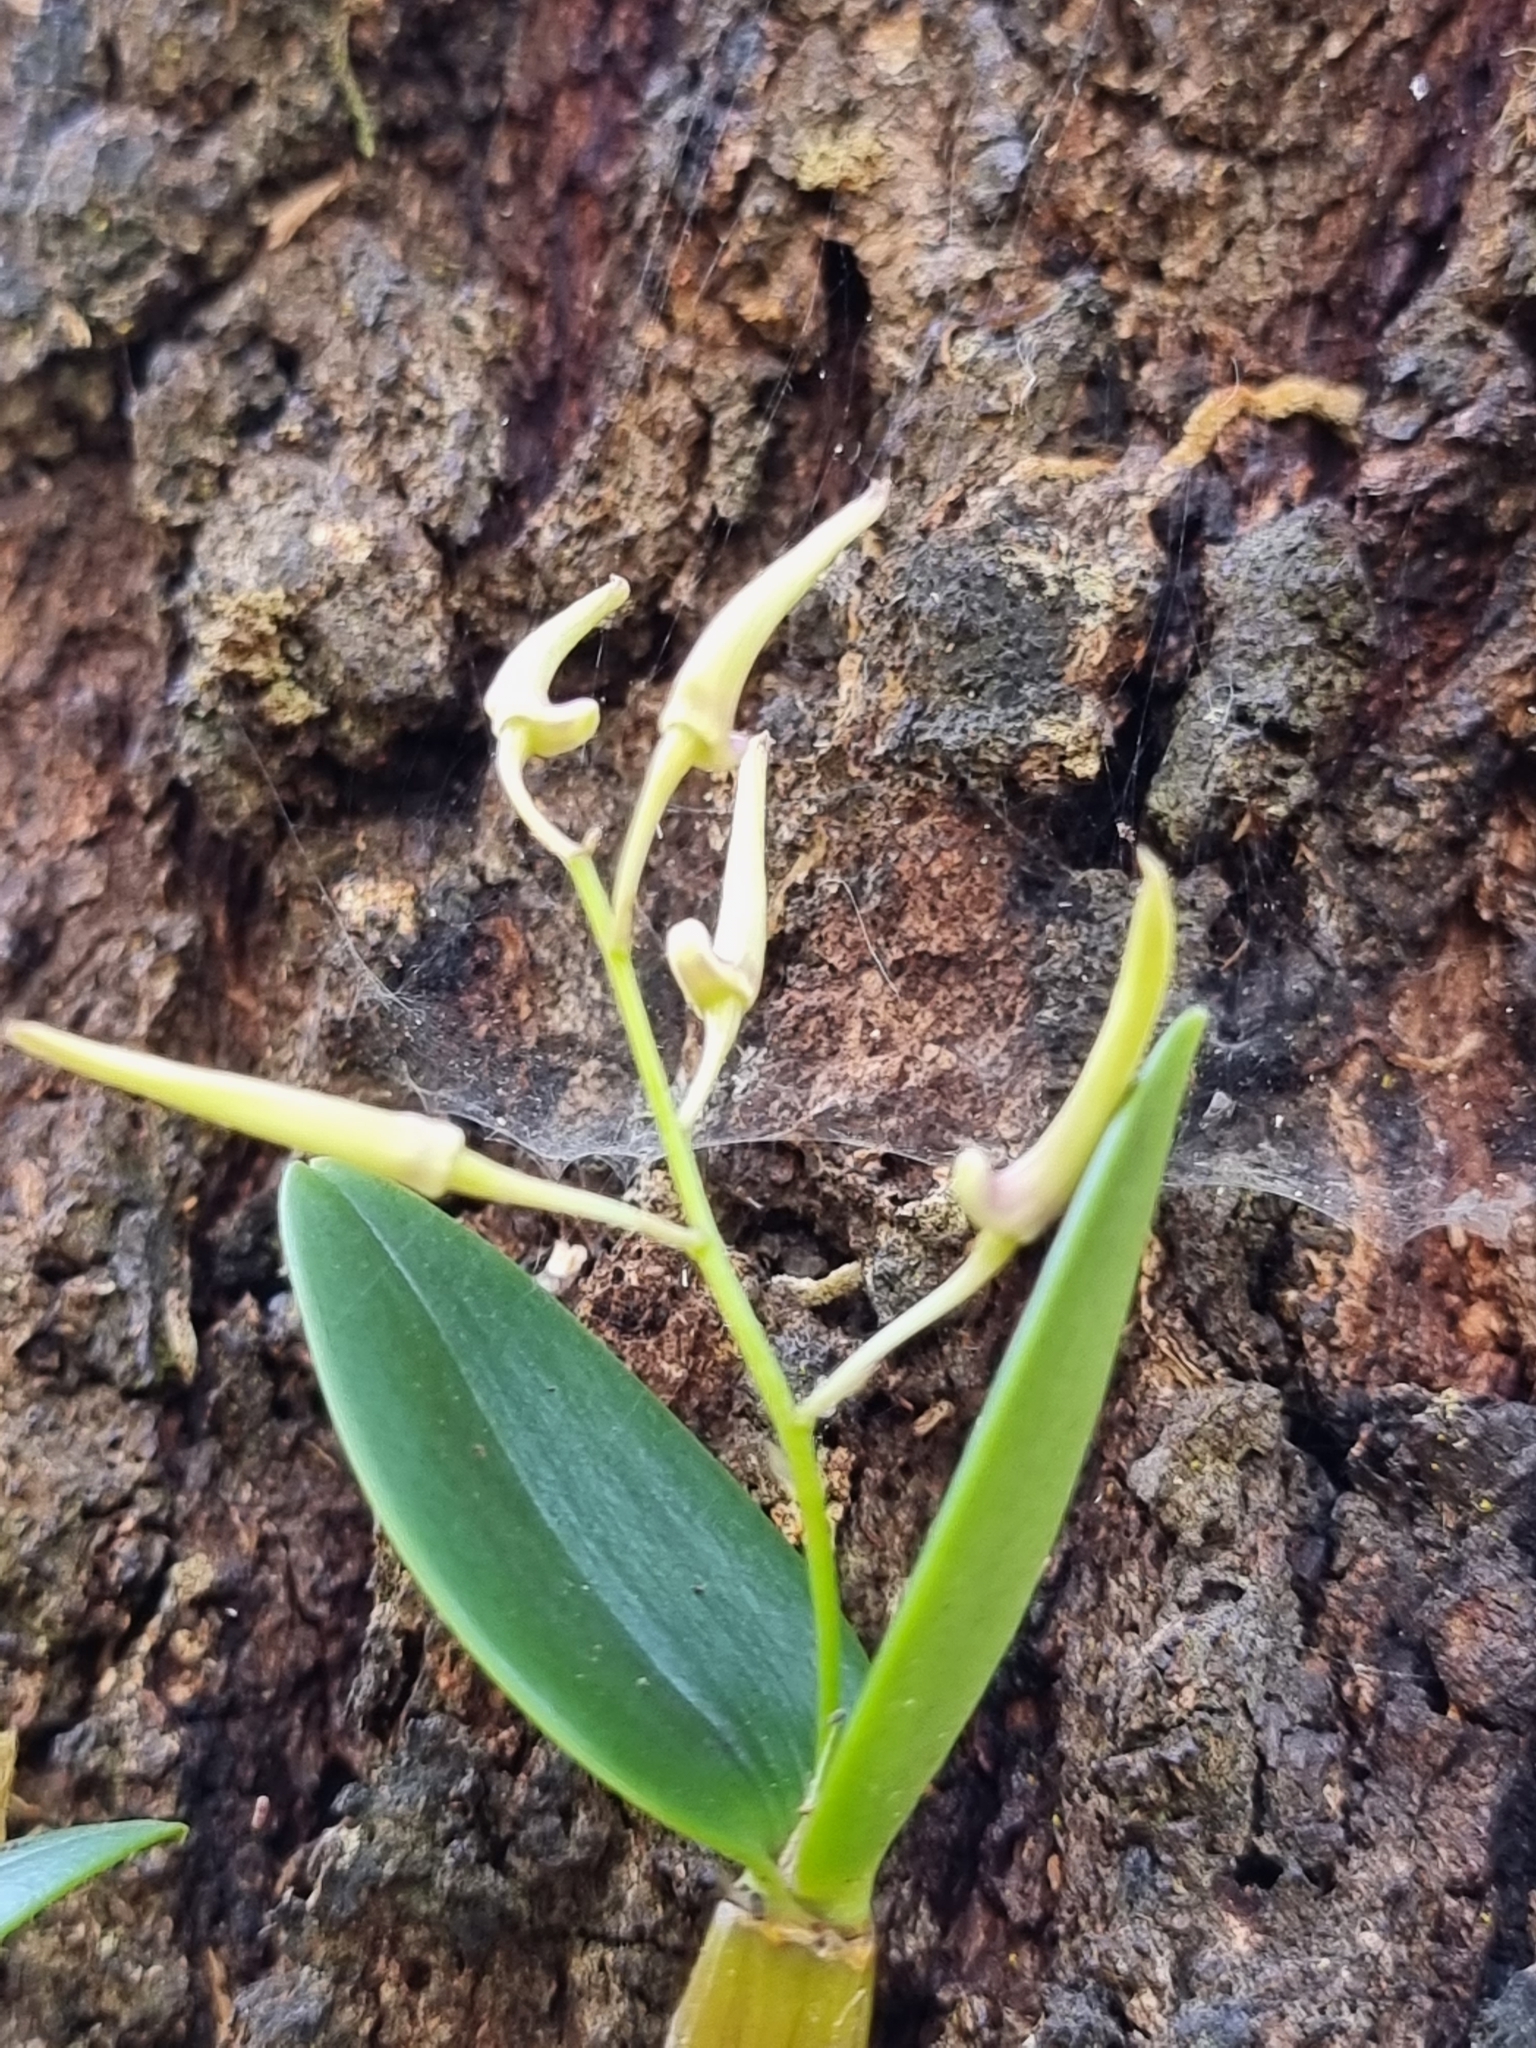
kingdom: Plantae
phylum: Tracheophyta
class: Liliopsida
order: Asparagales
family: Orchidaceae
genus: Dendrobium
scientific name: Dendrobium aemulum
